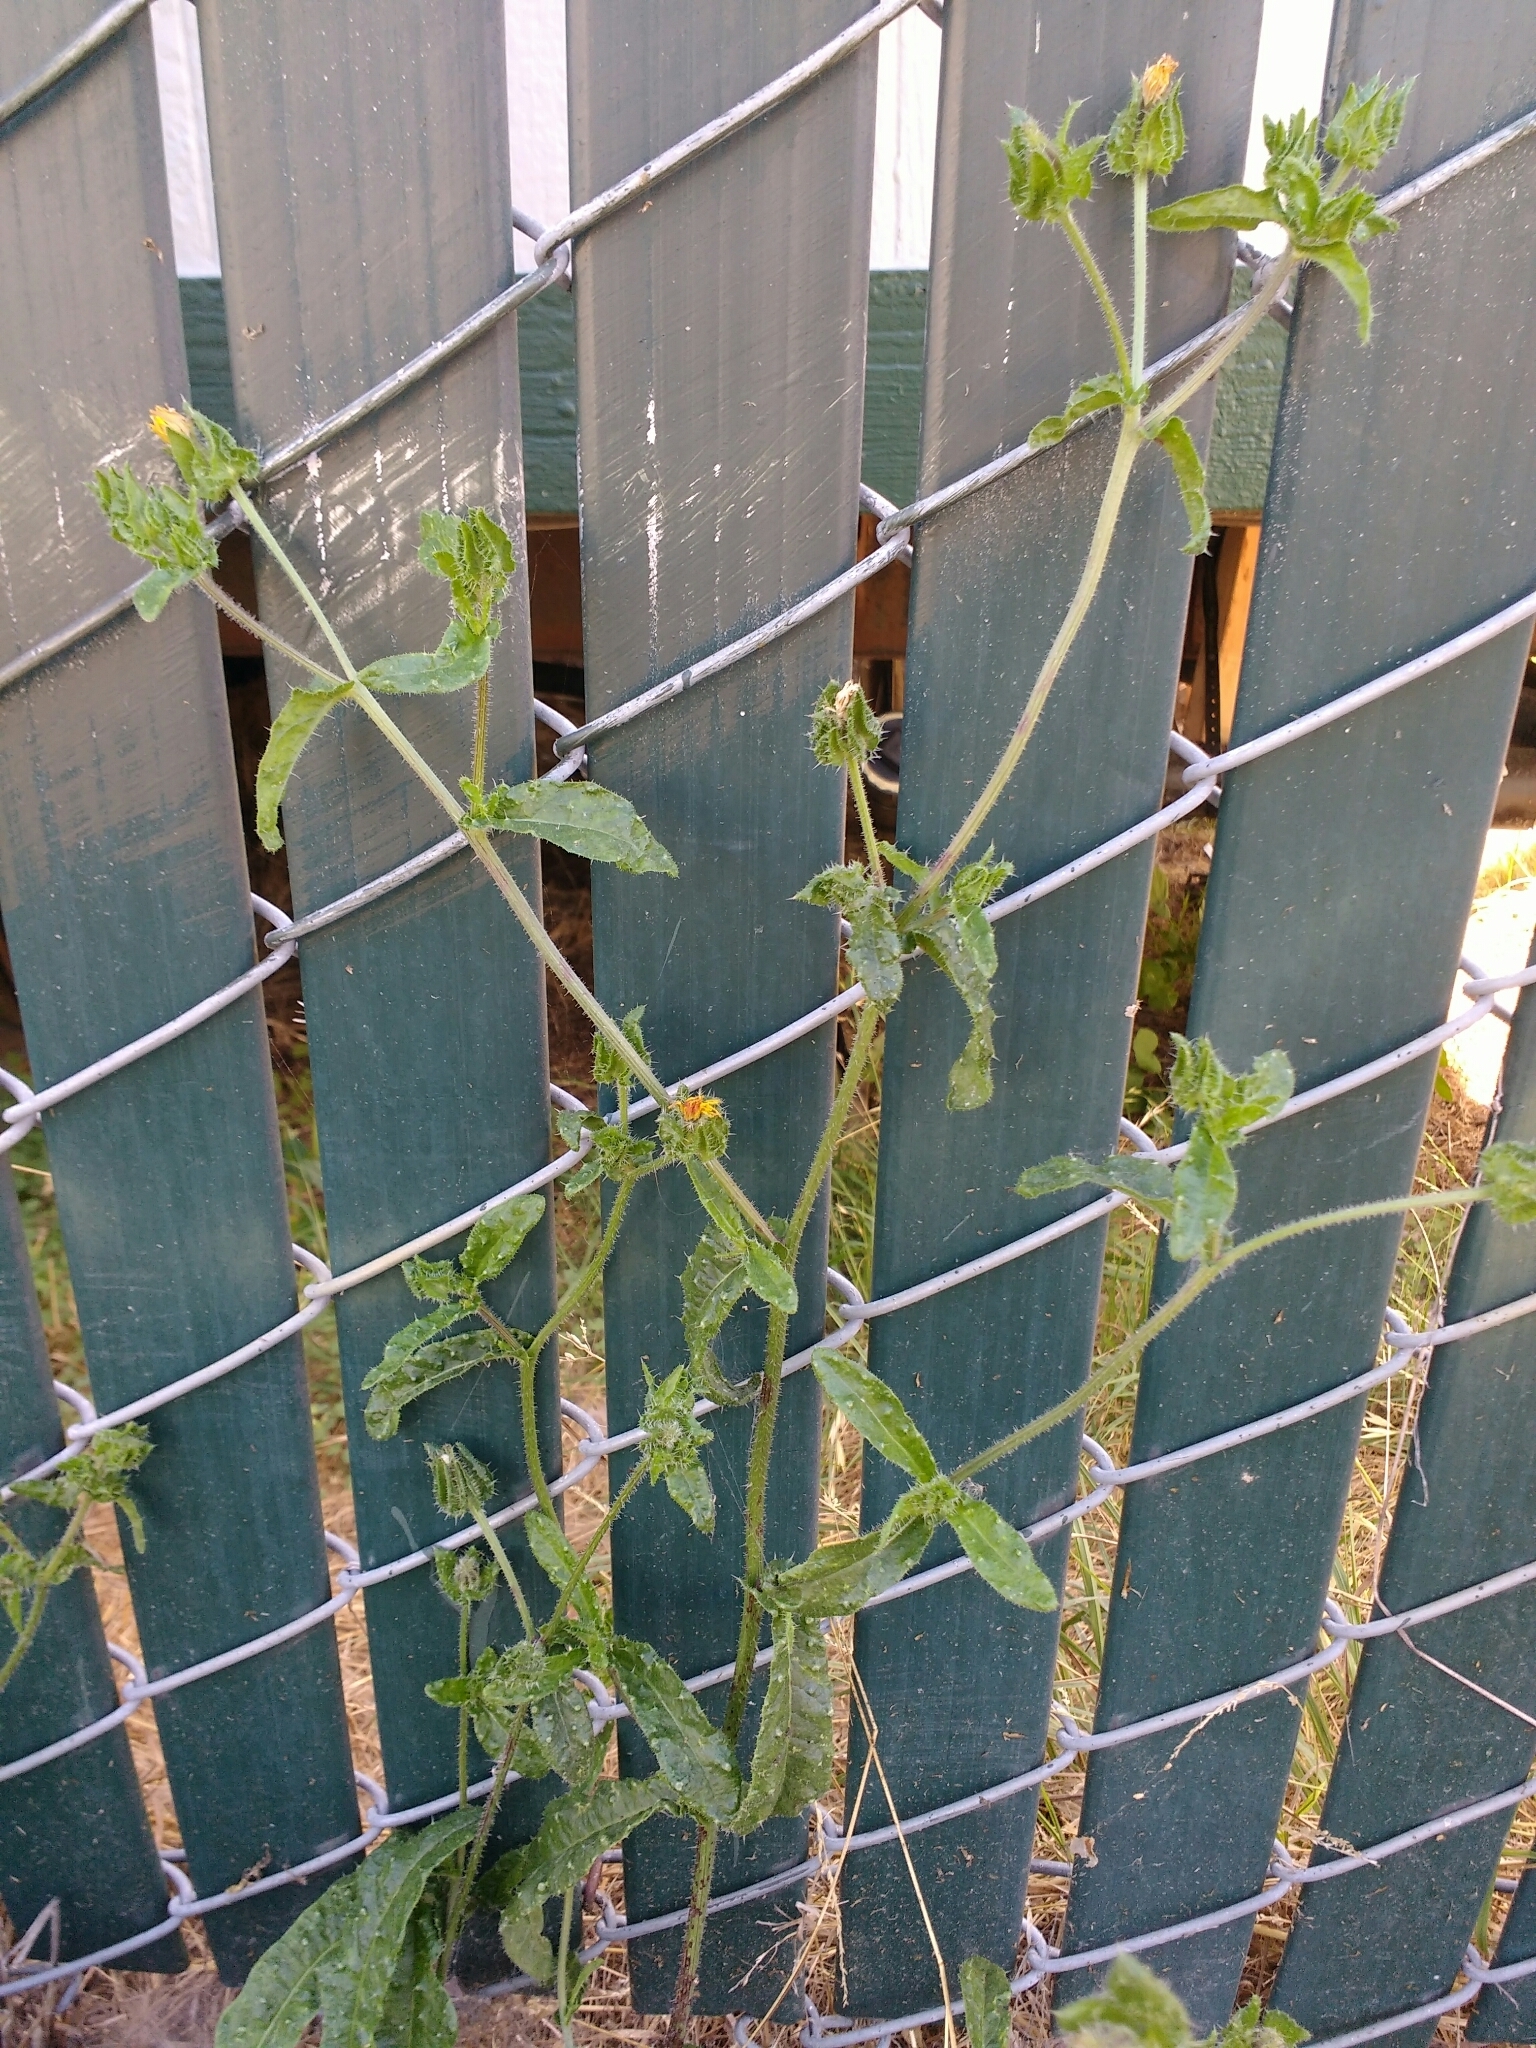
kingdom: Plantae
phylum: Tracheophyta
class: Magnoliopsida
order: Asterales
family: Asteraceae
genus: Helminthotheca
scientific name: Helminthotheca echioides
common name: Ox-tongue
